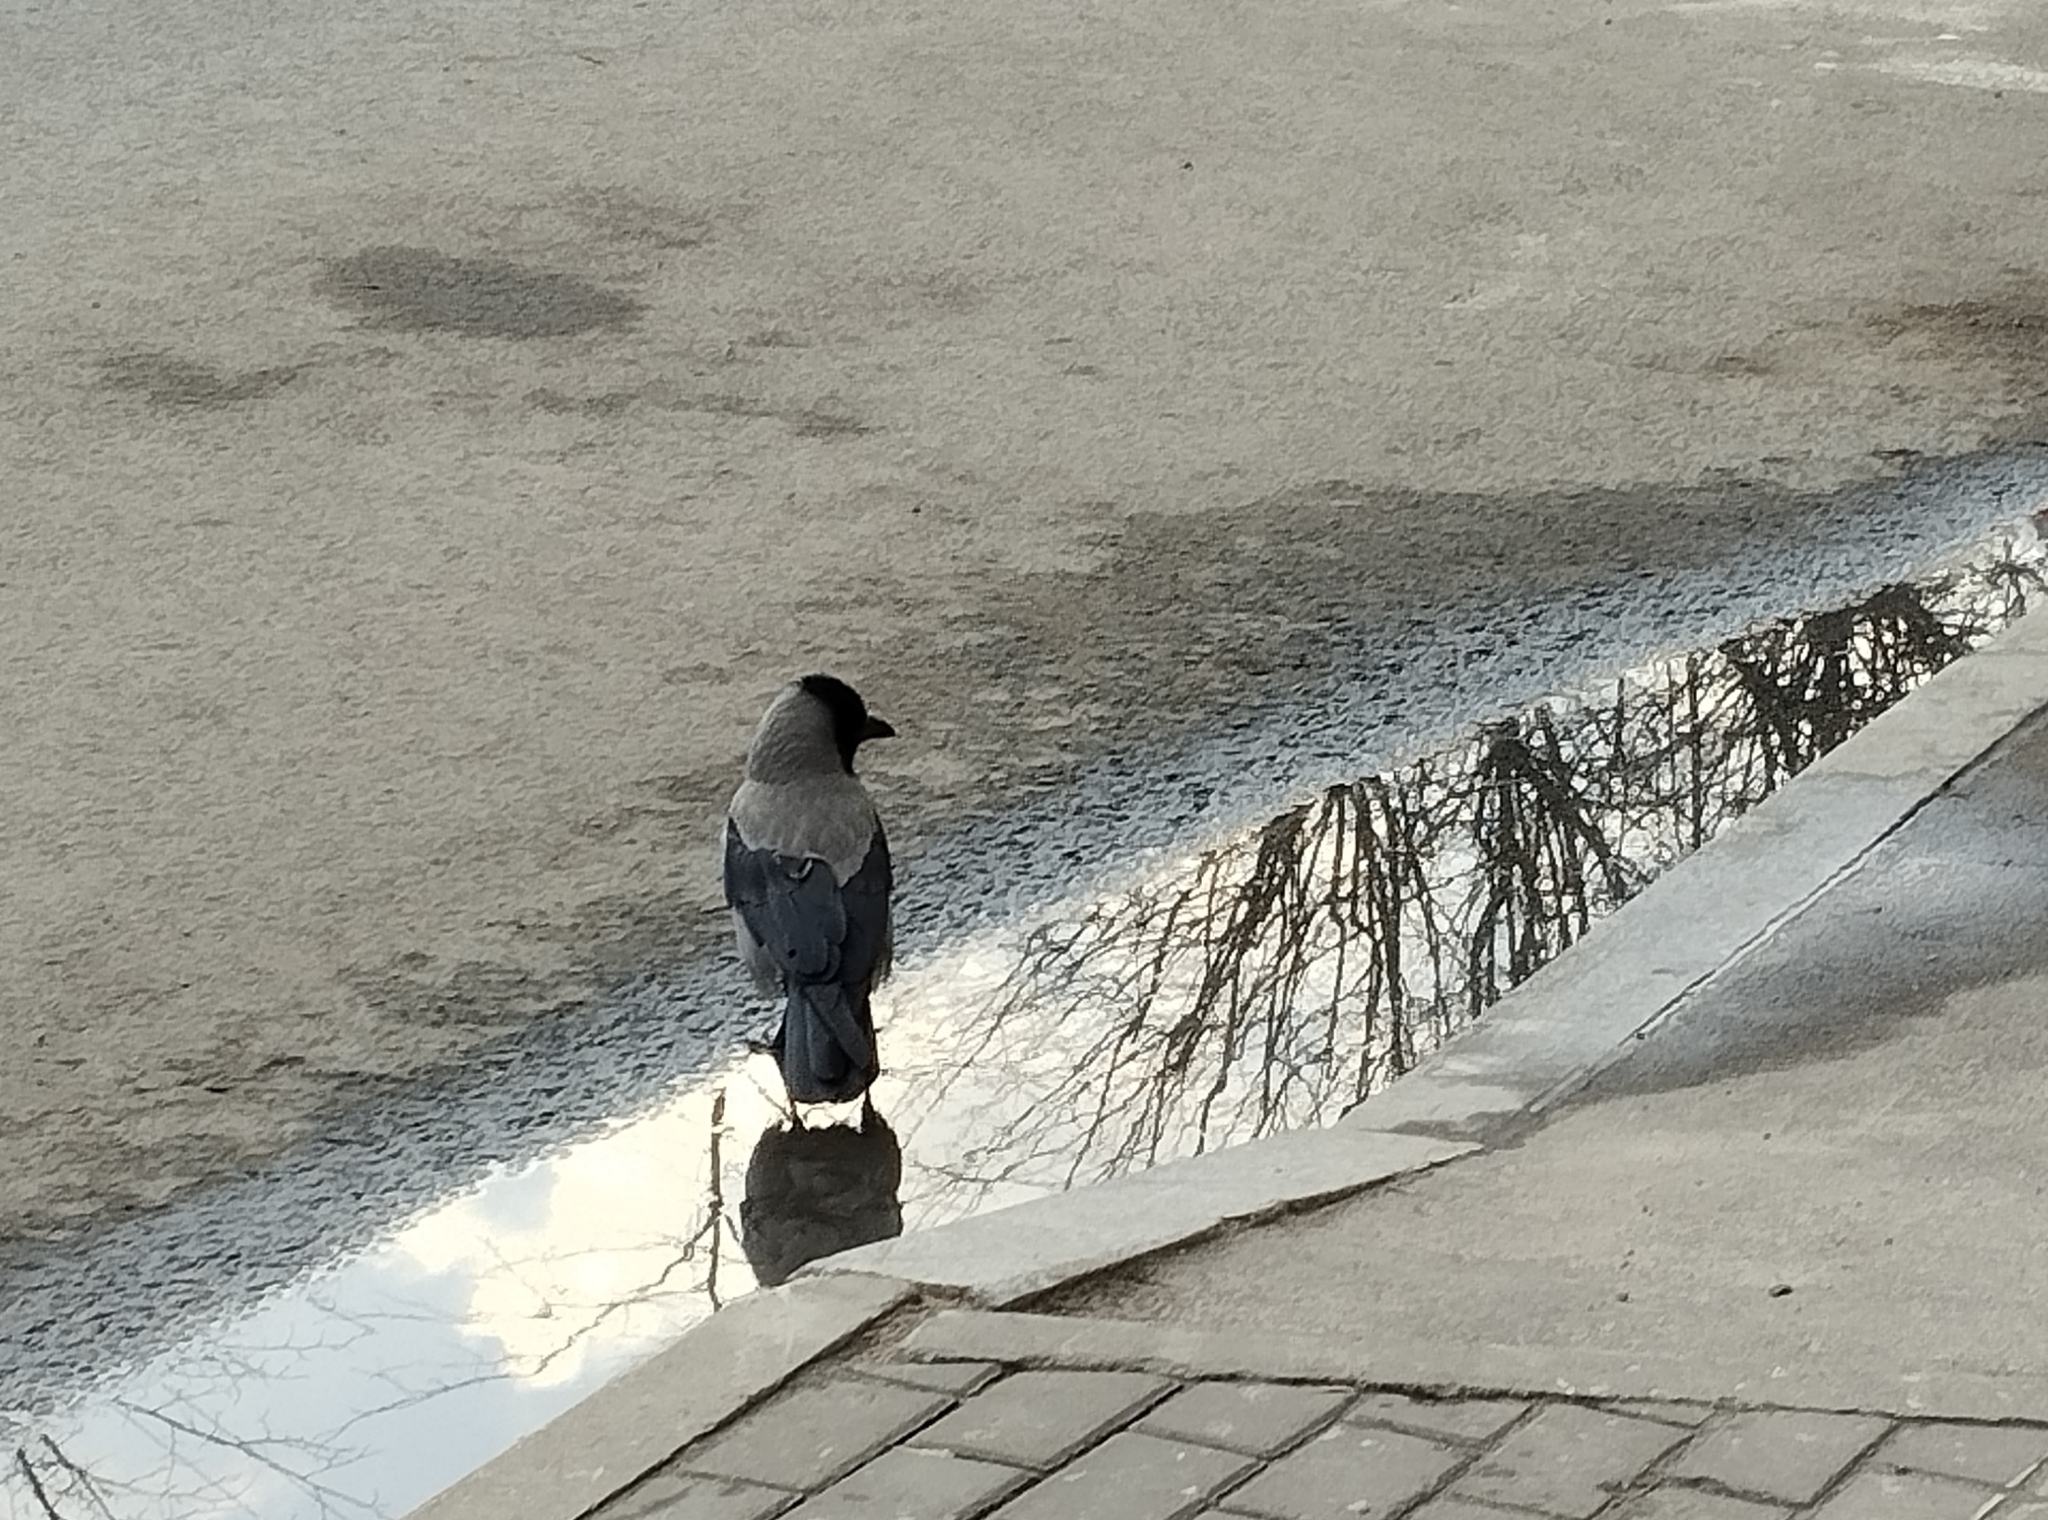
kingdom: Animalia
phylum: Chordata
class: Aves
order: Passeriformes
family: Corvidae
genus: Corvus
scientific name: Corvus cornix
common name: Hooded crow
